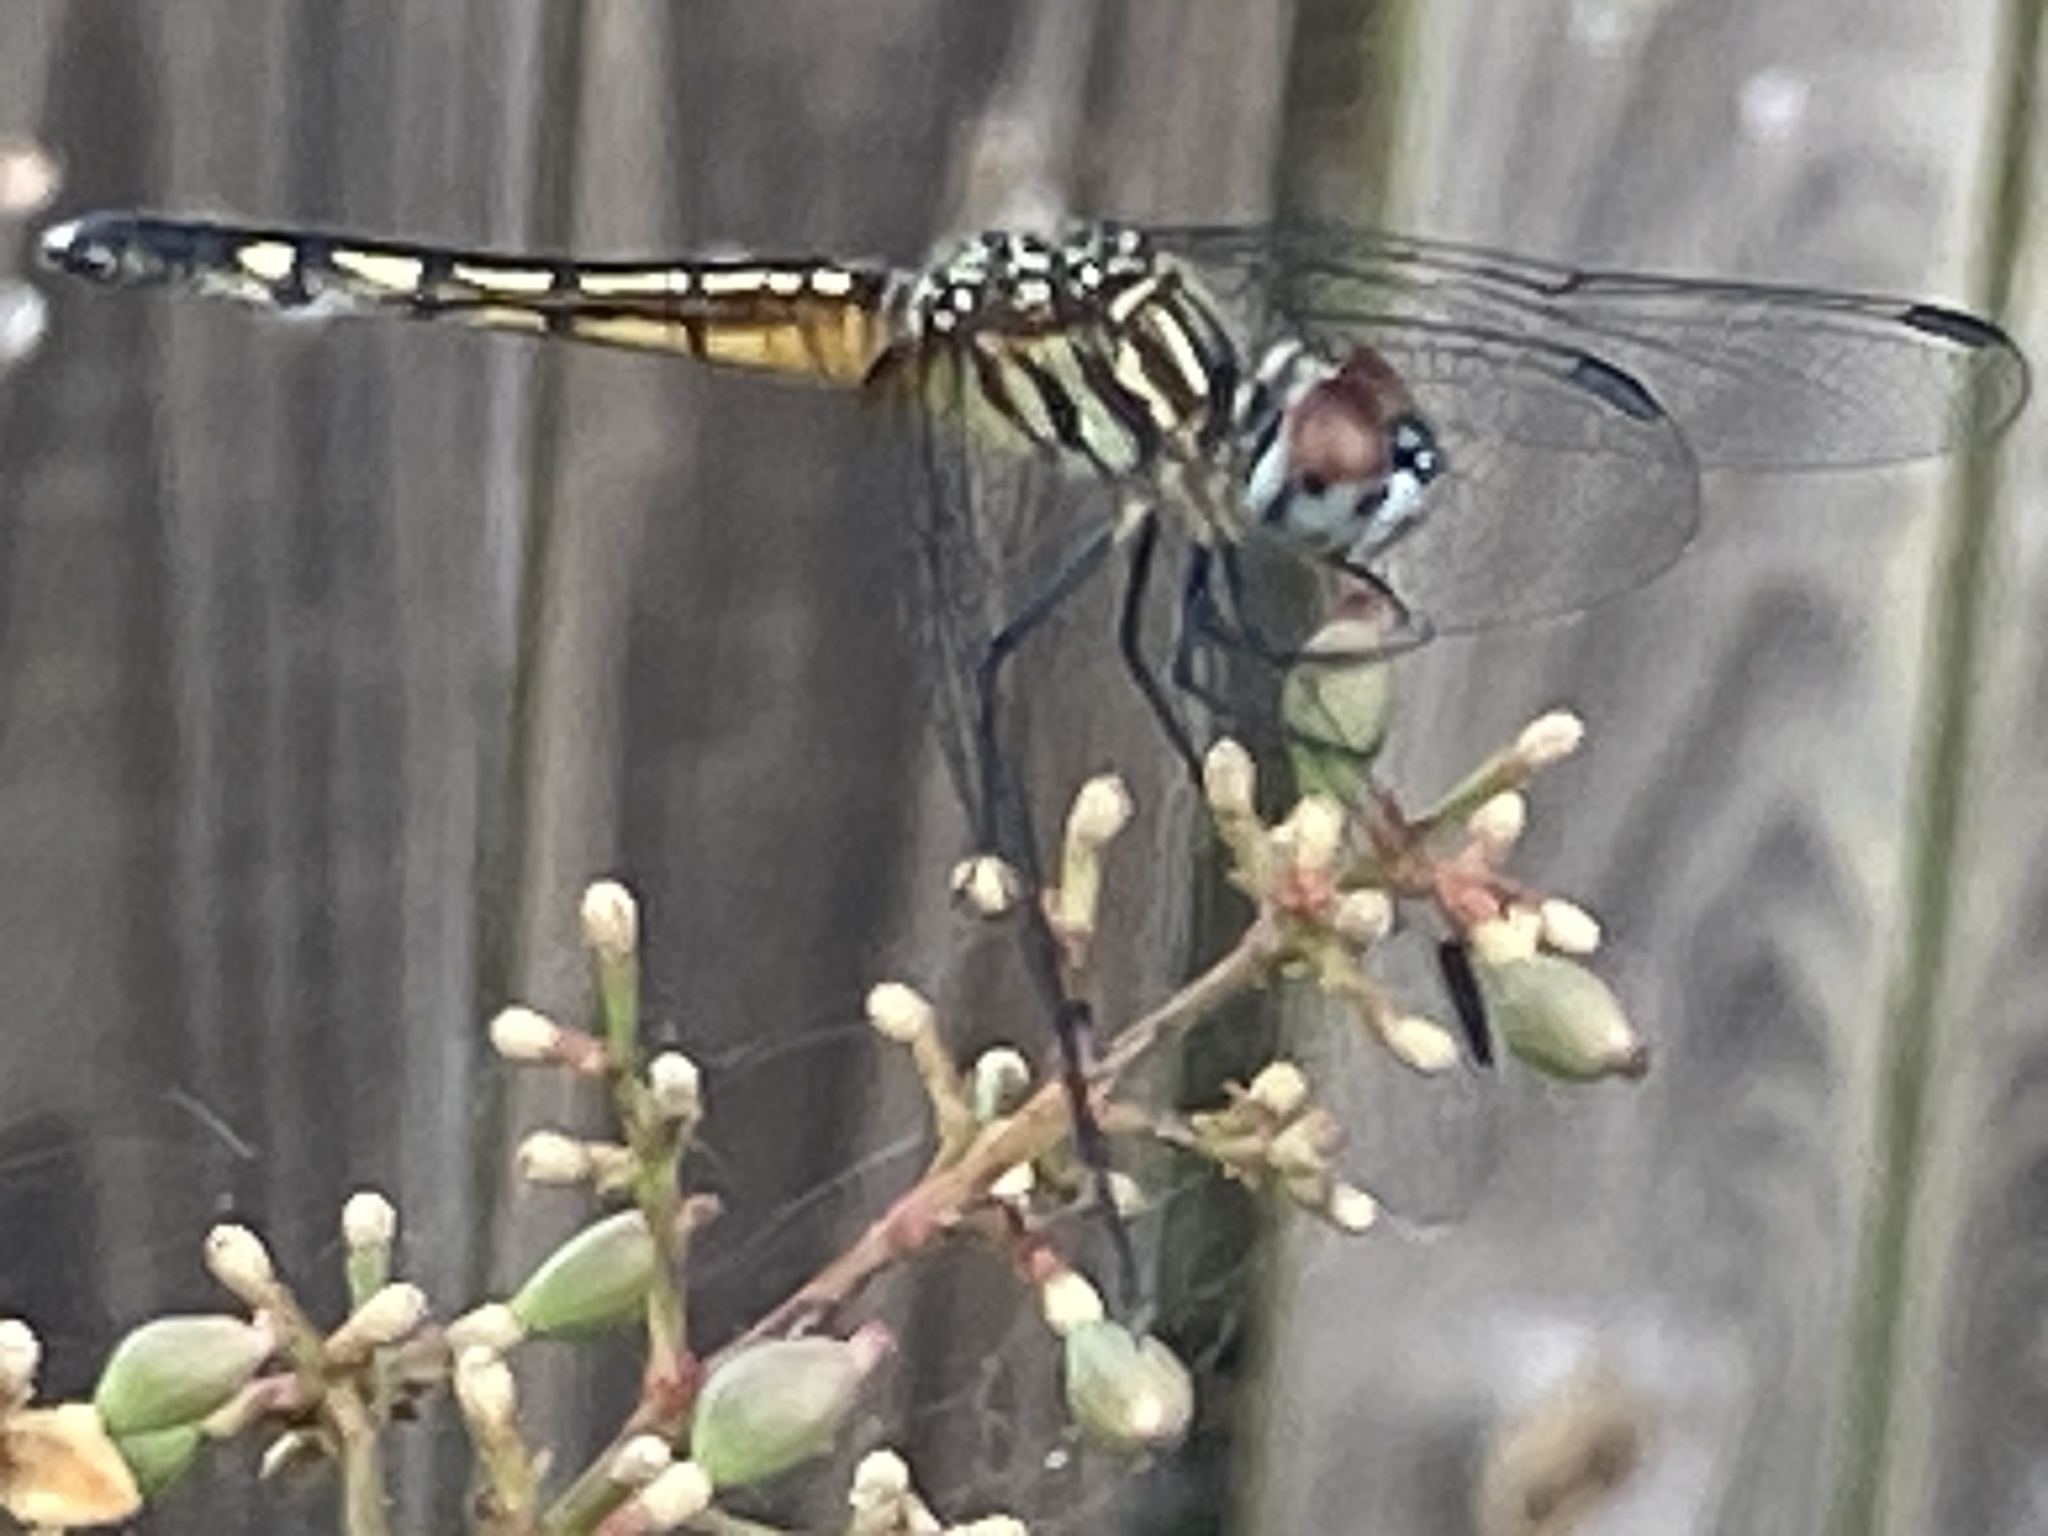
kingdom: Animalia
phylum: Arthropoda
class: Insecta
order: Odonata
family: Libellulidae
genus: Pachydiplax
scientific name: Pachydiplax longipennis
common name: Blue dasher
